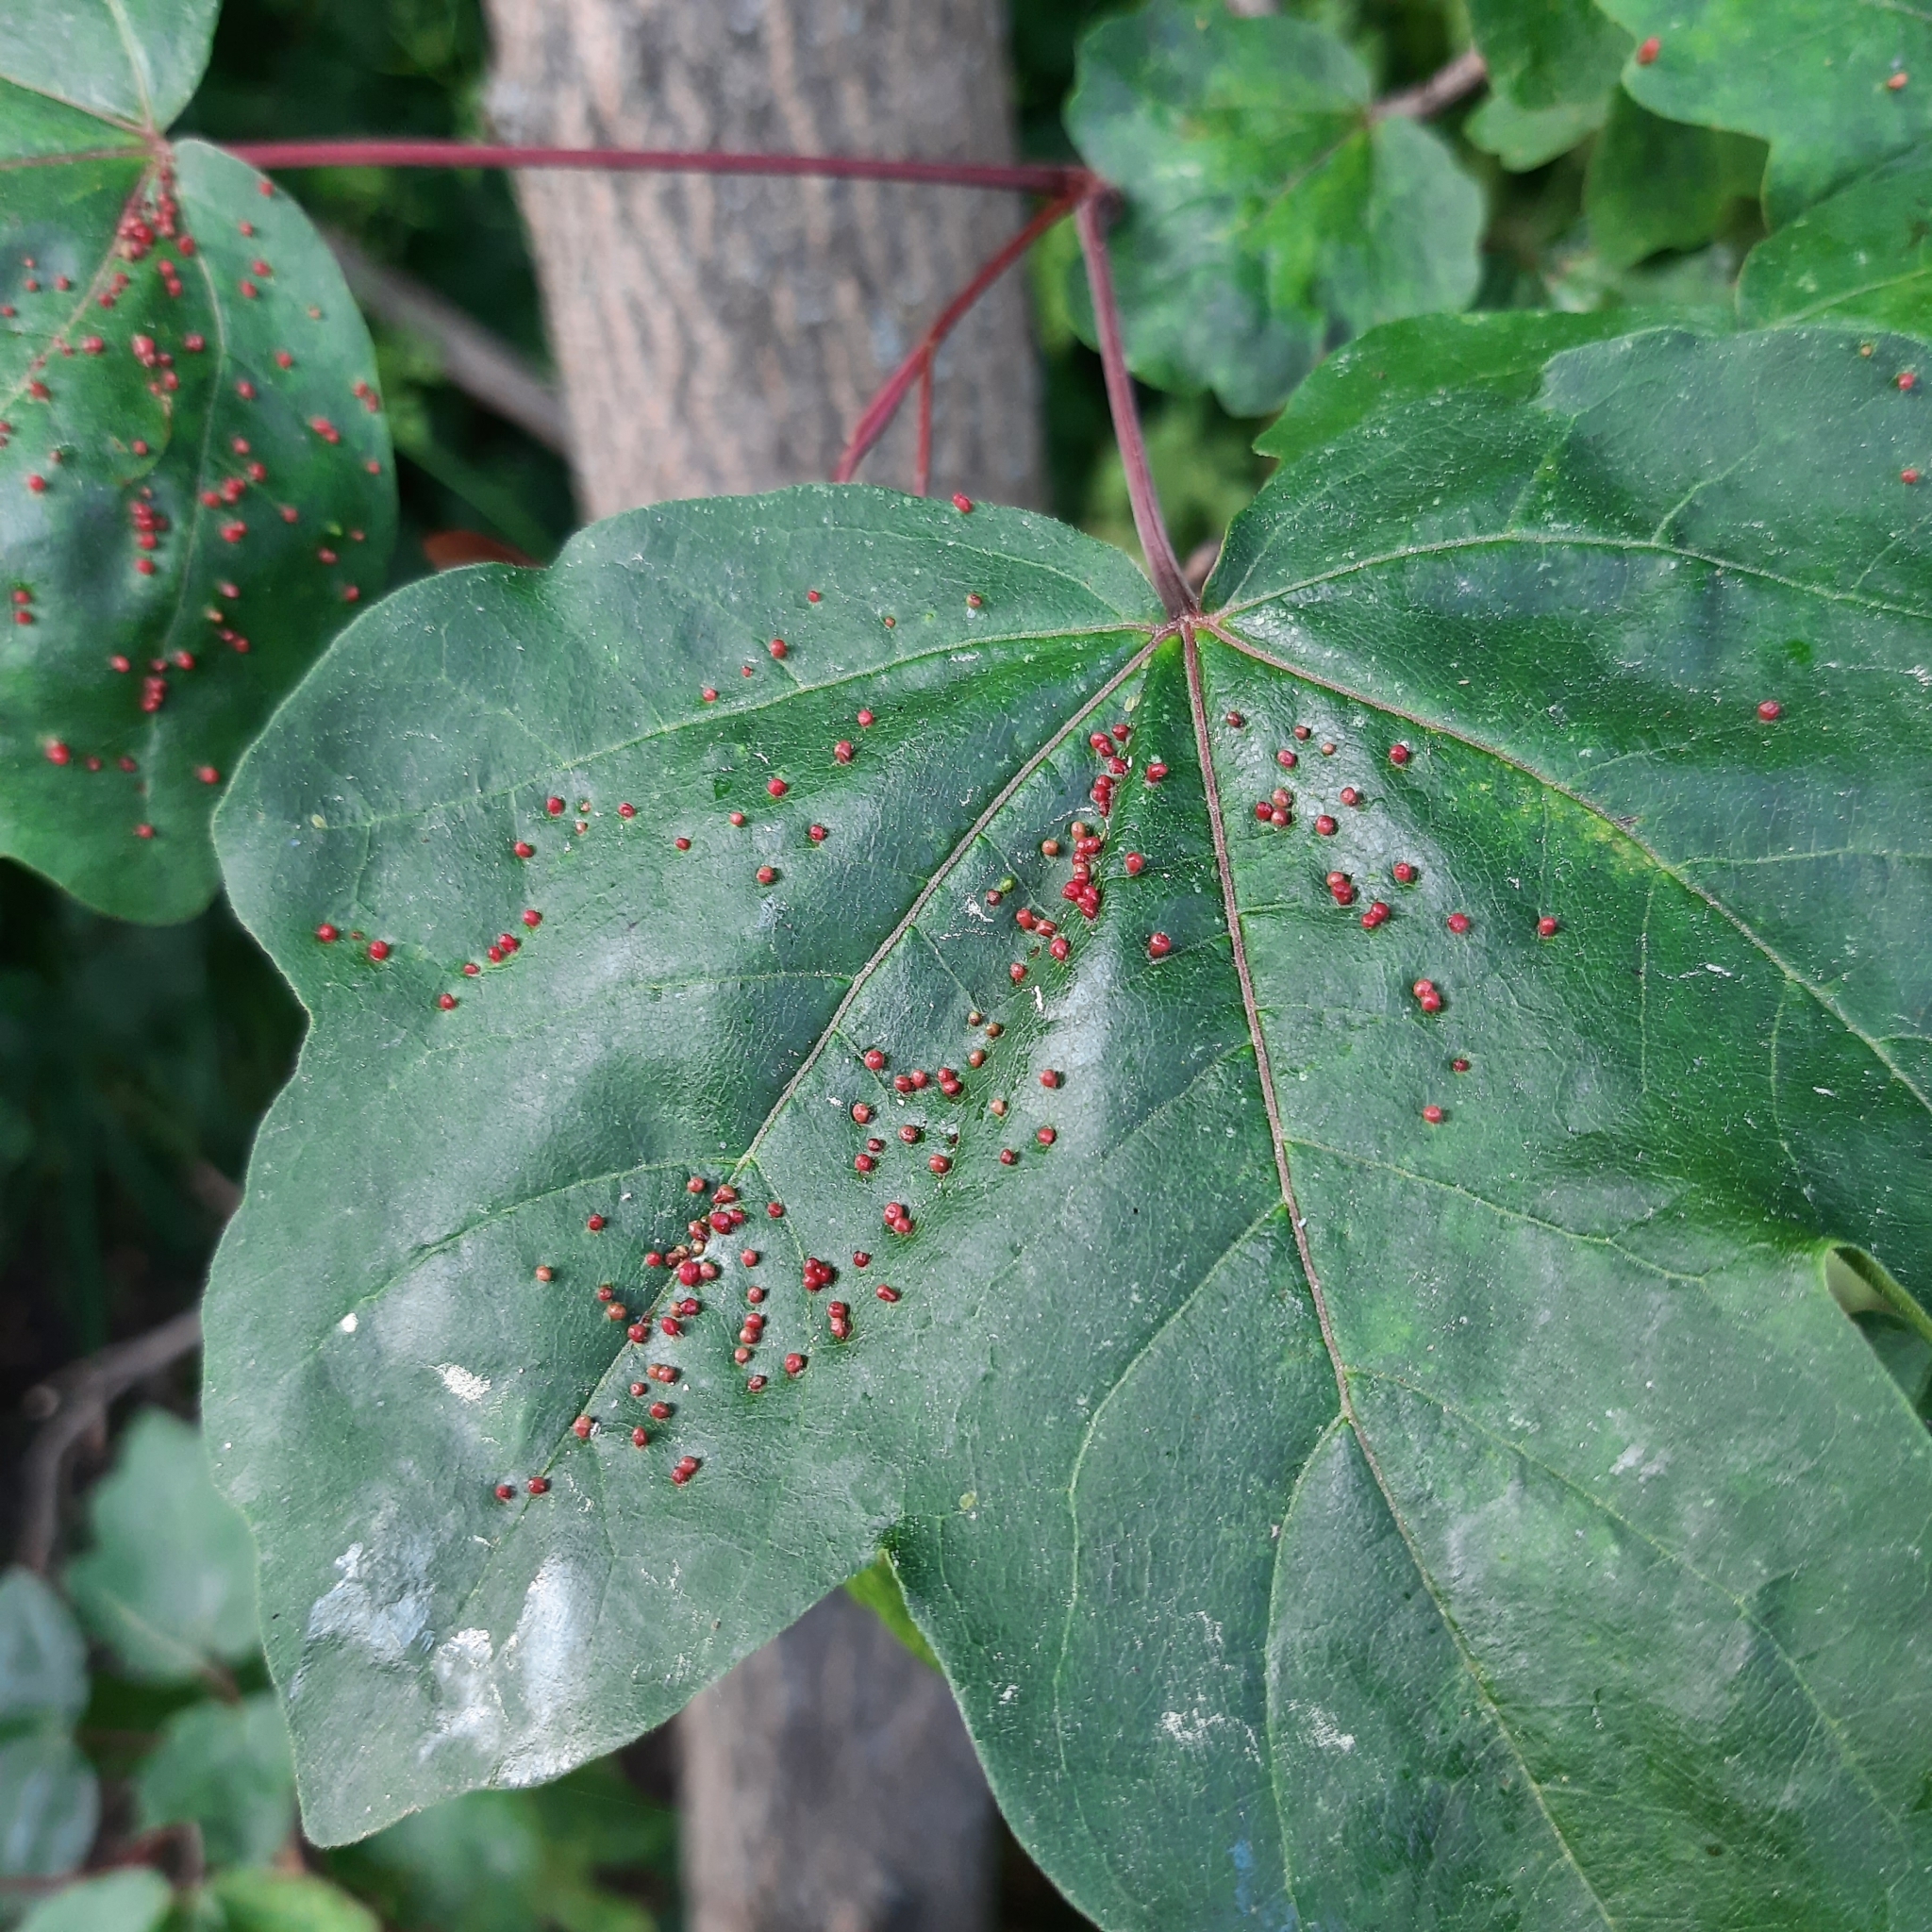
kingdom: Plantae
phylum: Tracheophyta
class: Magnoliopsida
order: Sapindales
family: Sapindaceae
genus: Acer
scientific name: Acer campestre
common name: Field maple
